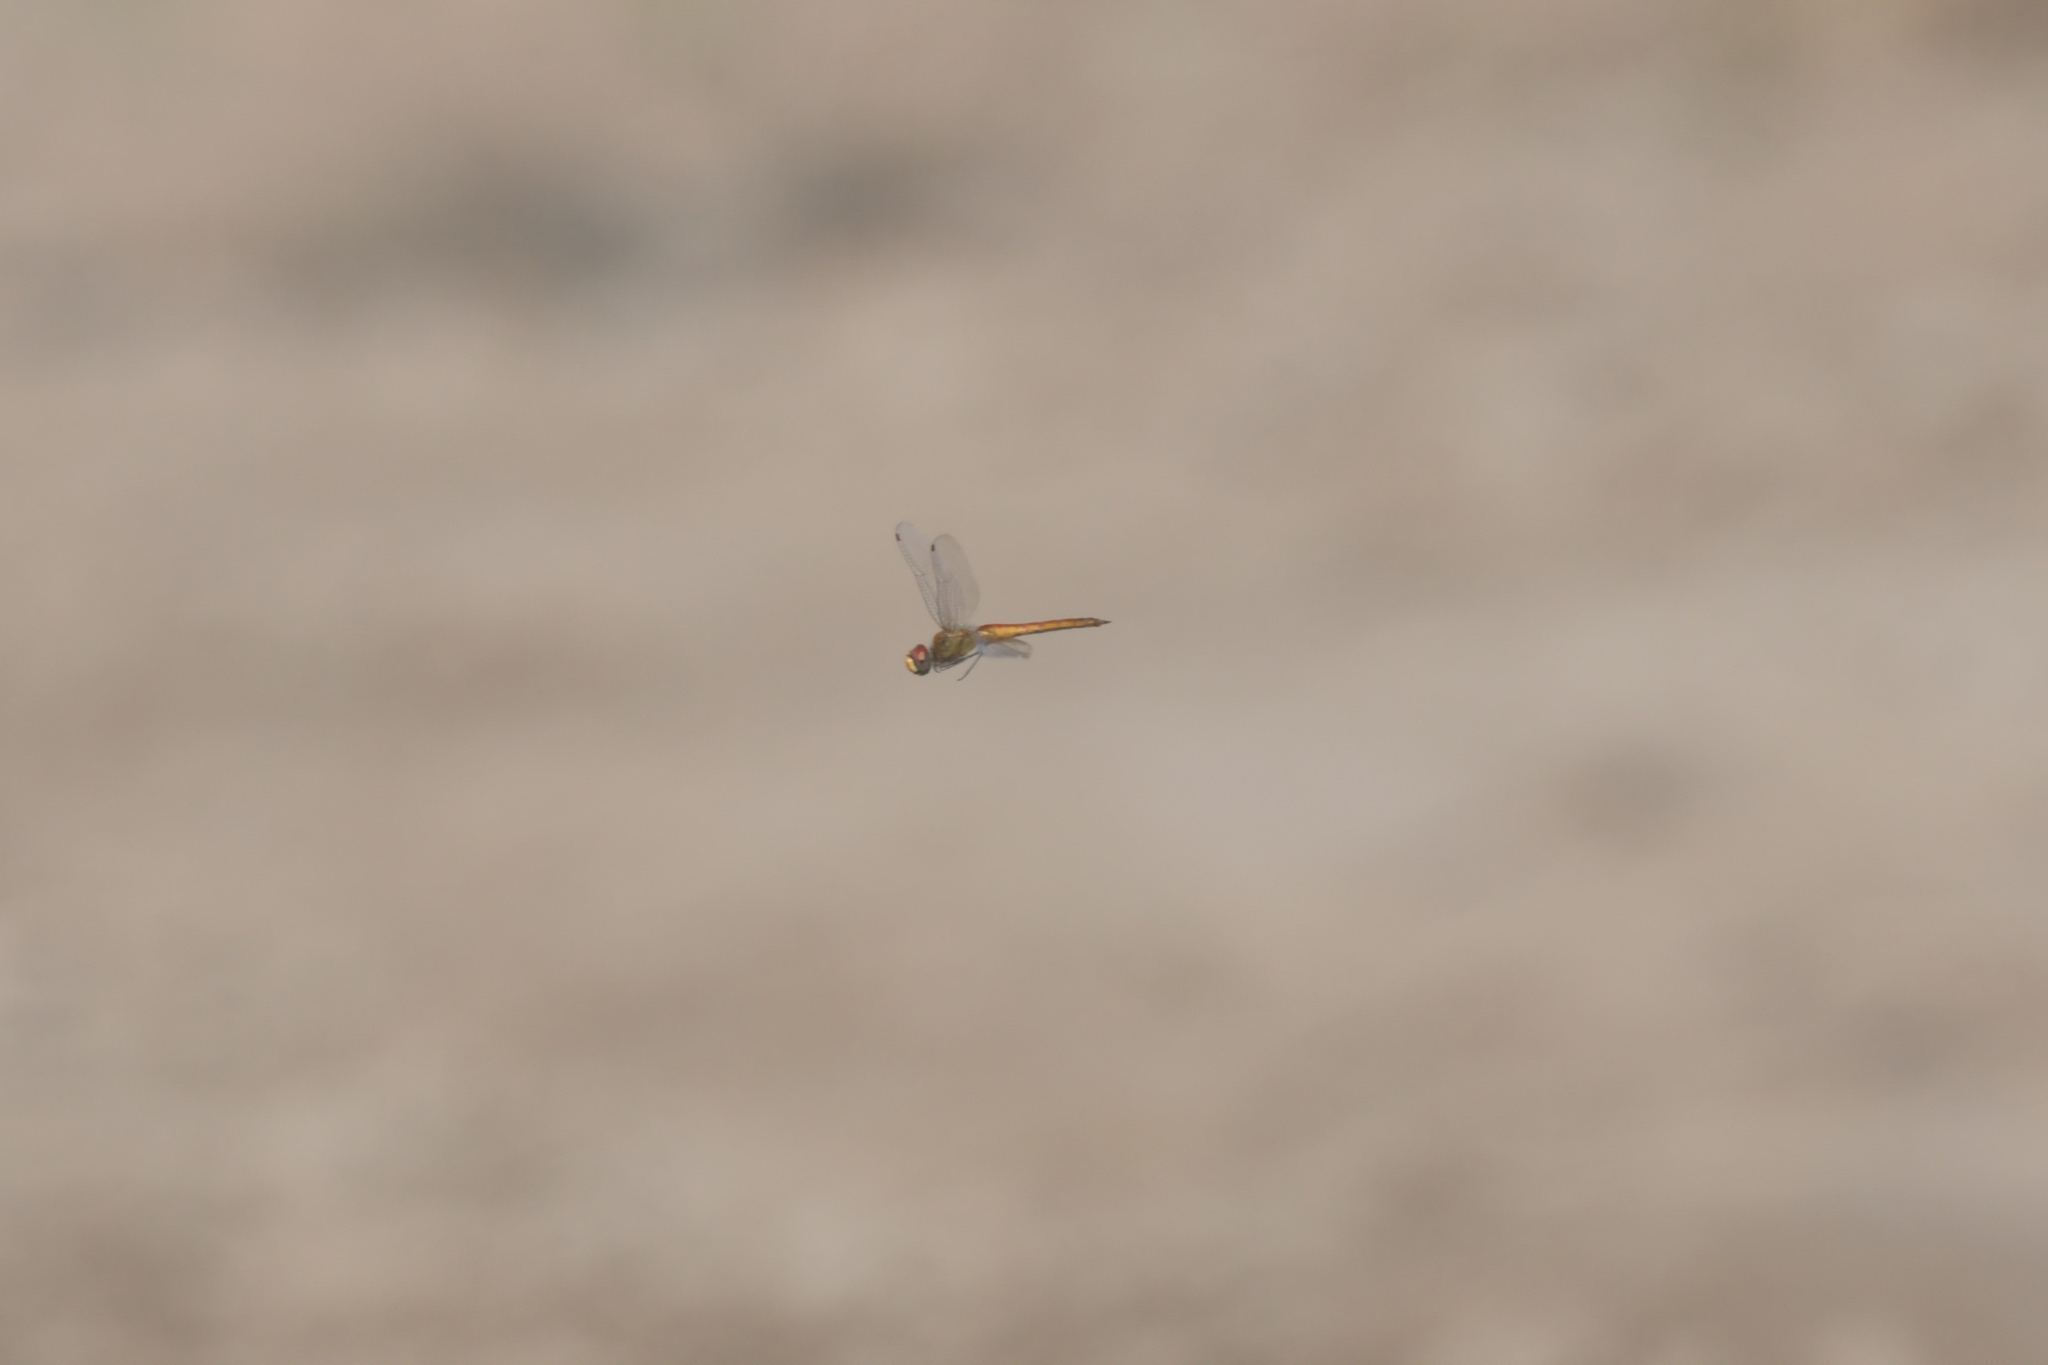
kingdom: Animalia
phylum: Arthropoda
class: Insecta
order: Odonata
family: Libellulidae
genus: Pantala
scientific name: Pantala flavescens
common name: Wandering glider
